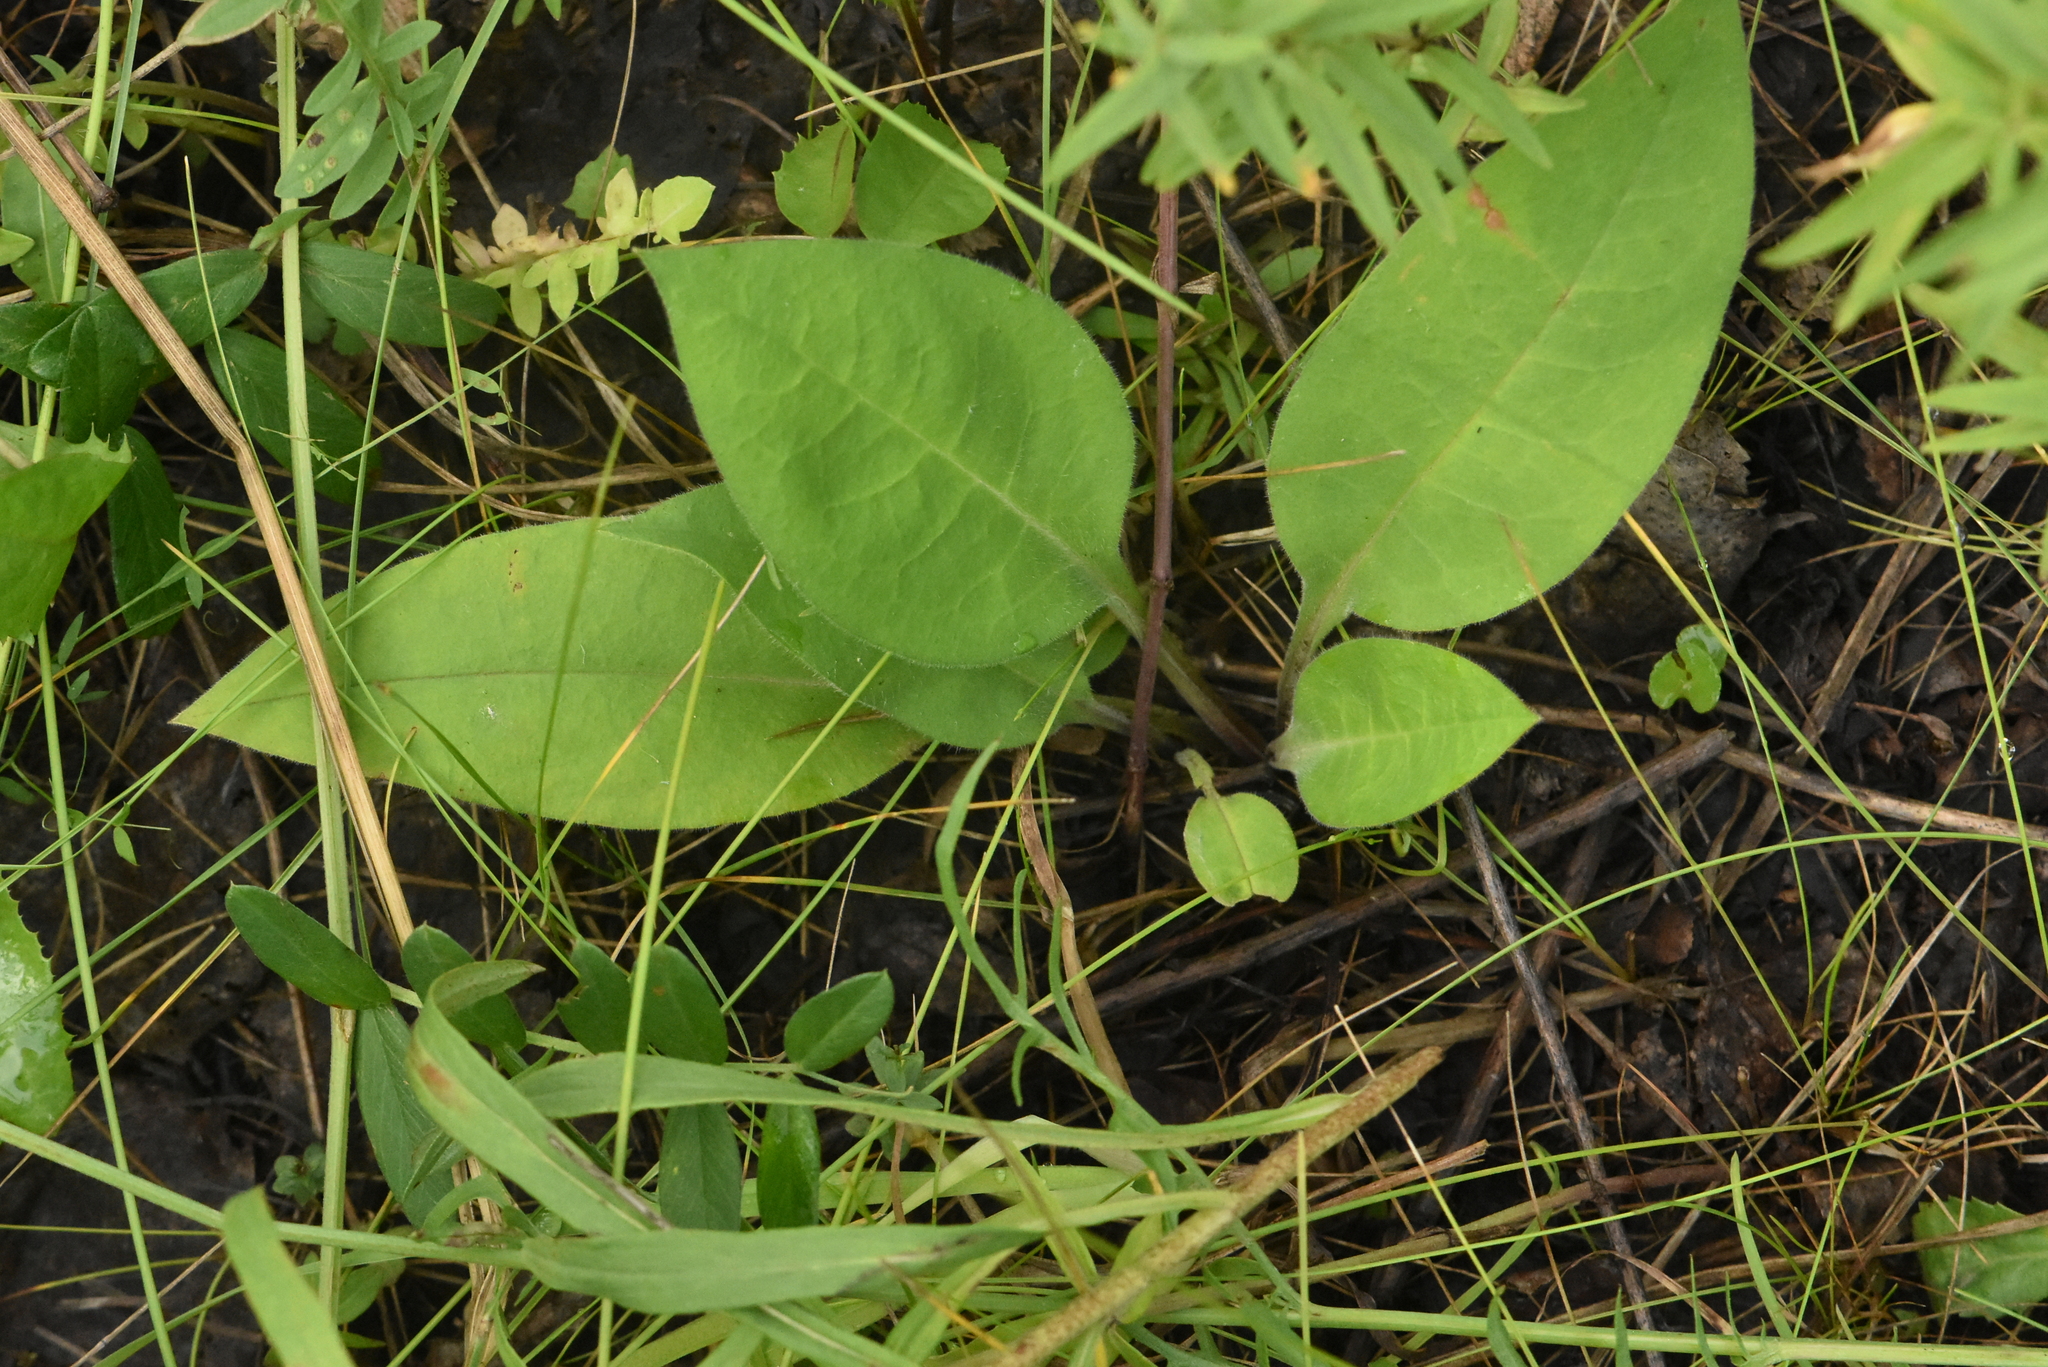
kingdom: Plantae
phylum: Tracheophyta
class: Magnoliopsida
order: Boraginales
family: Boraginaceae
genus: Pulmonaria
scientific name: Pulmonaria mollis
